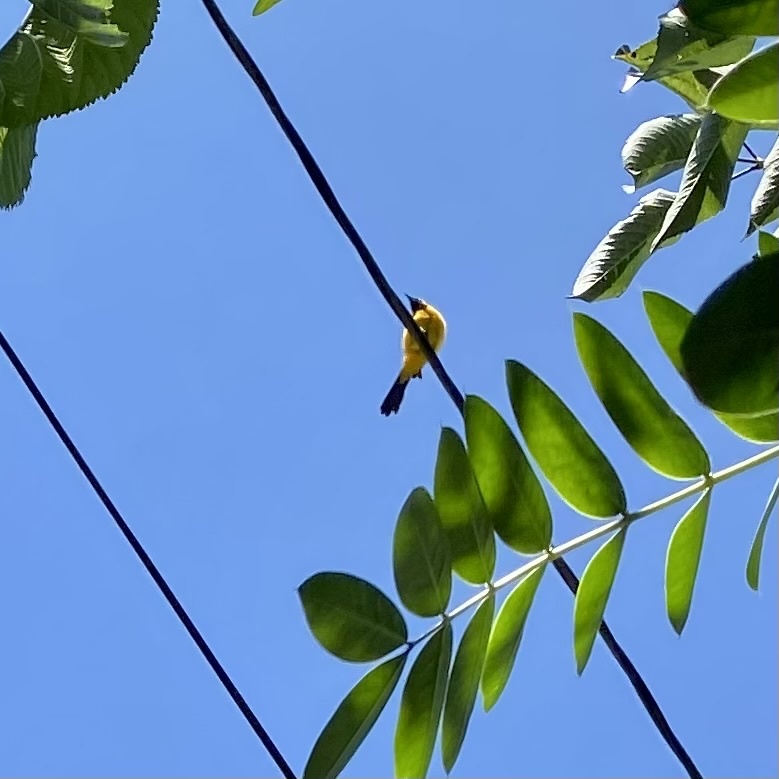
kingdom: Animalia
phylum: Chordata
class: Aves
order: Passeriformes
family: Icteridae
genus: Icterus
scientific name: Icterus cucullatus
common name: Hooded oriole
